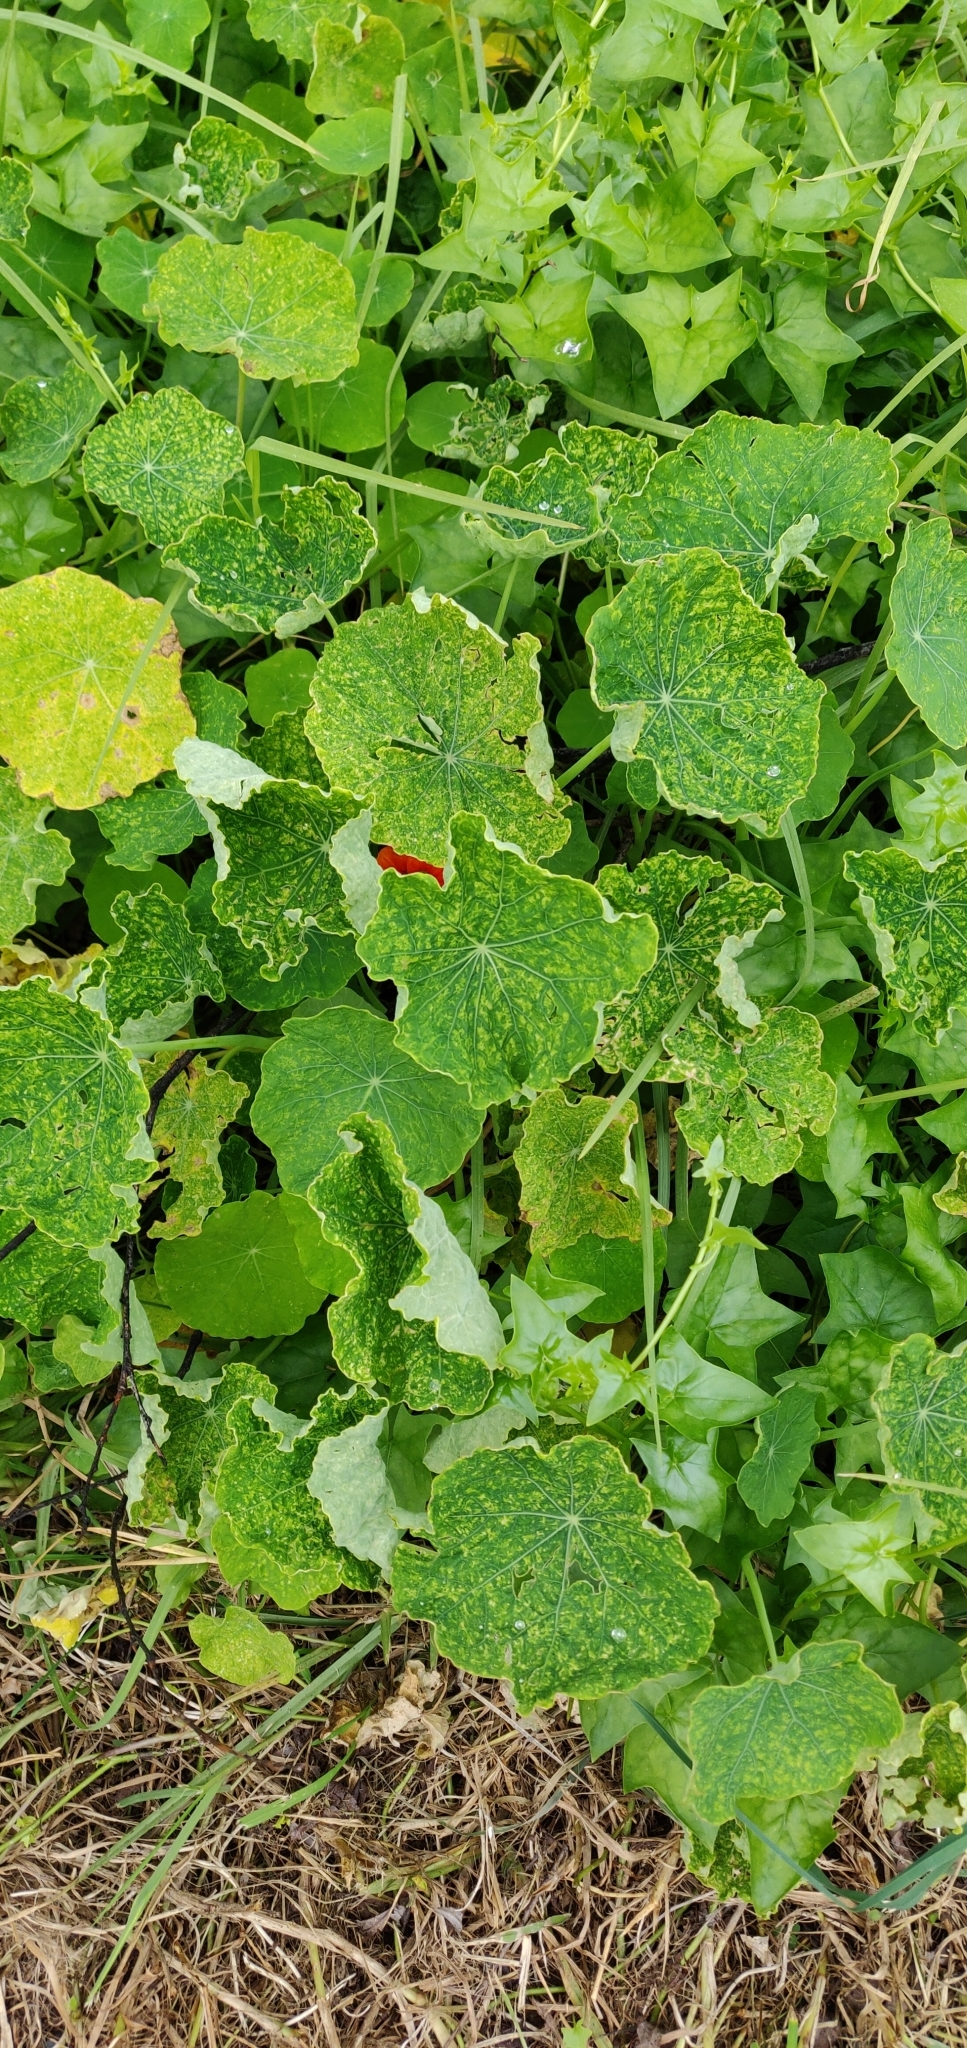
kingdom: Plantae
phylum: Tracheophyta
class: Magnoliopsida
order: Brassicales
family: Tropaeolaceae
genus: Tropaeolum
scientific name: Tropaeolum majus
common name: Nasturtium
